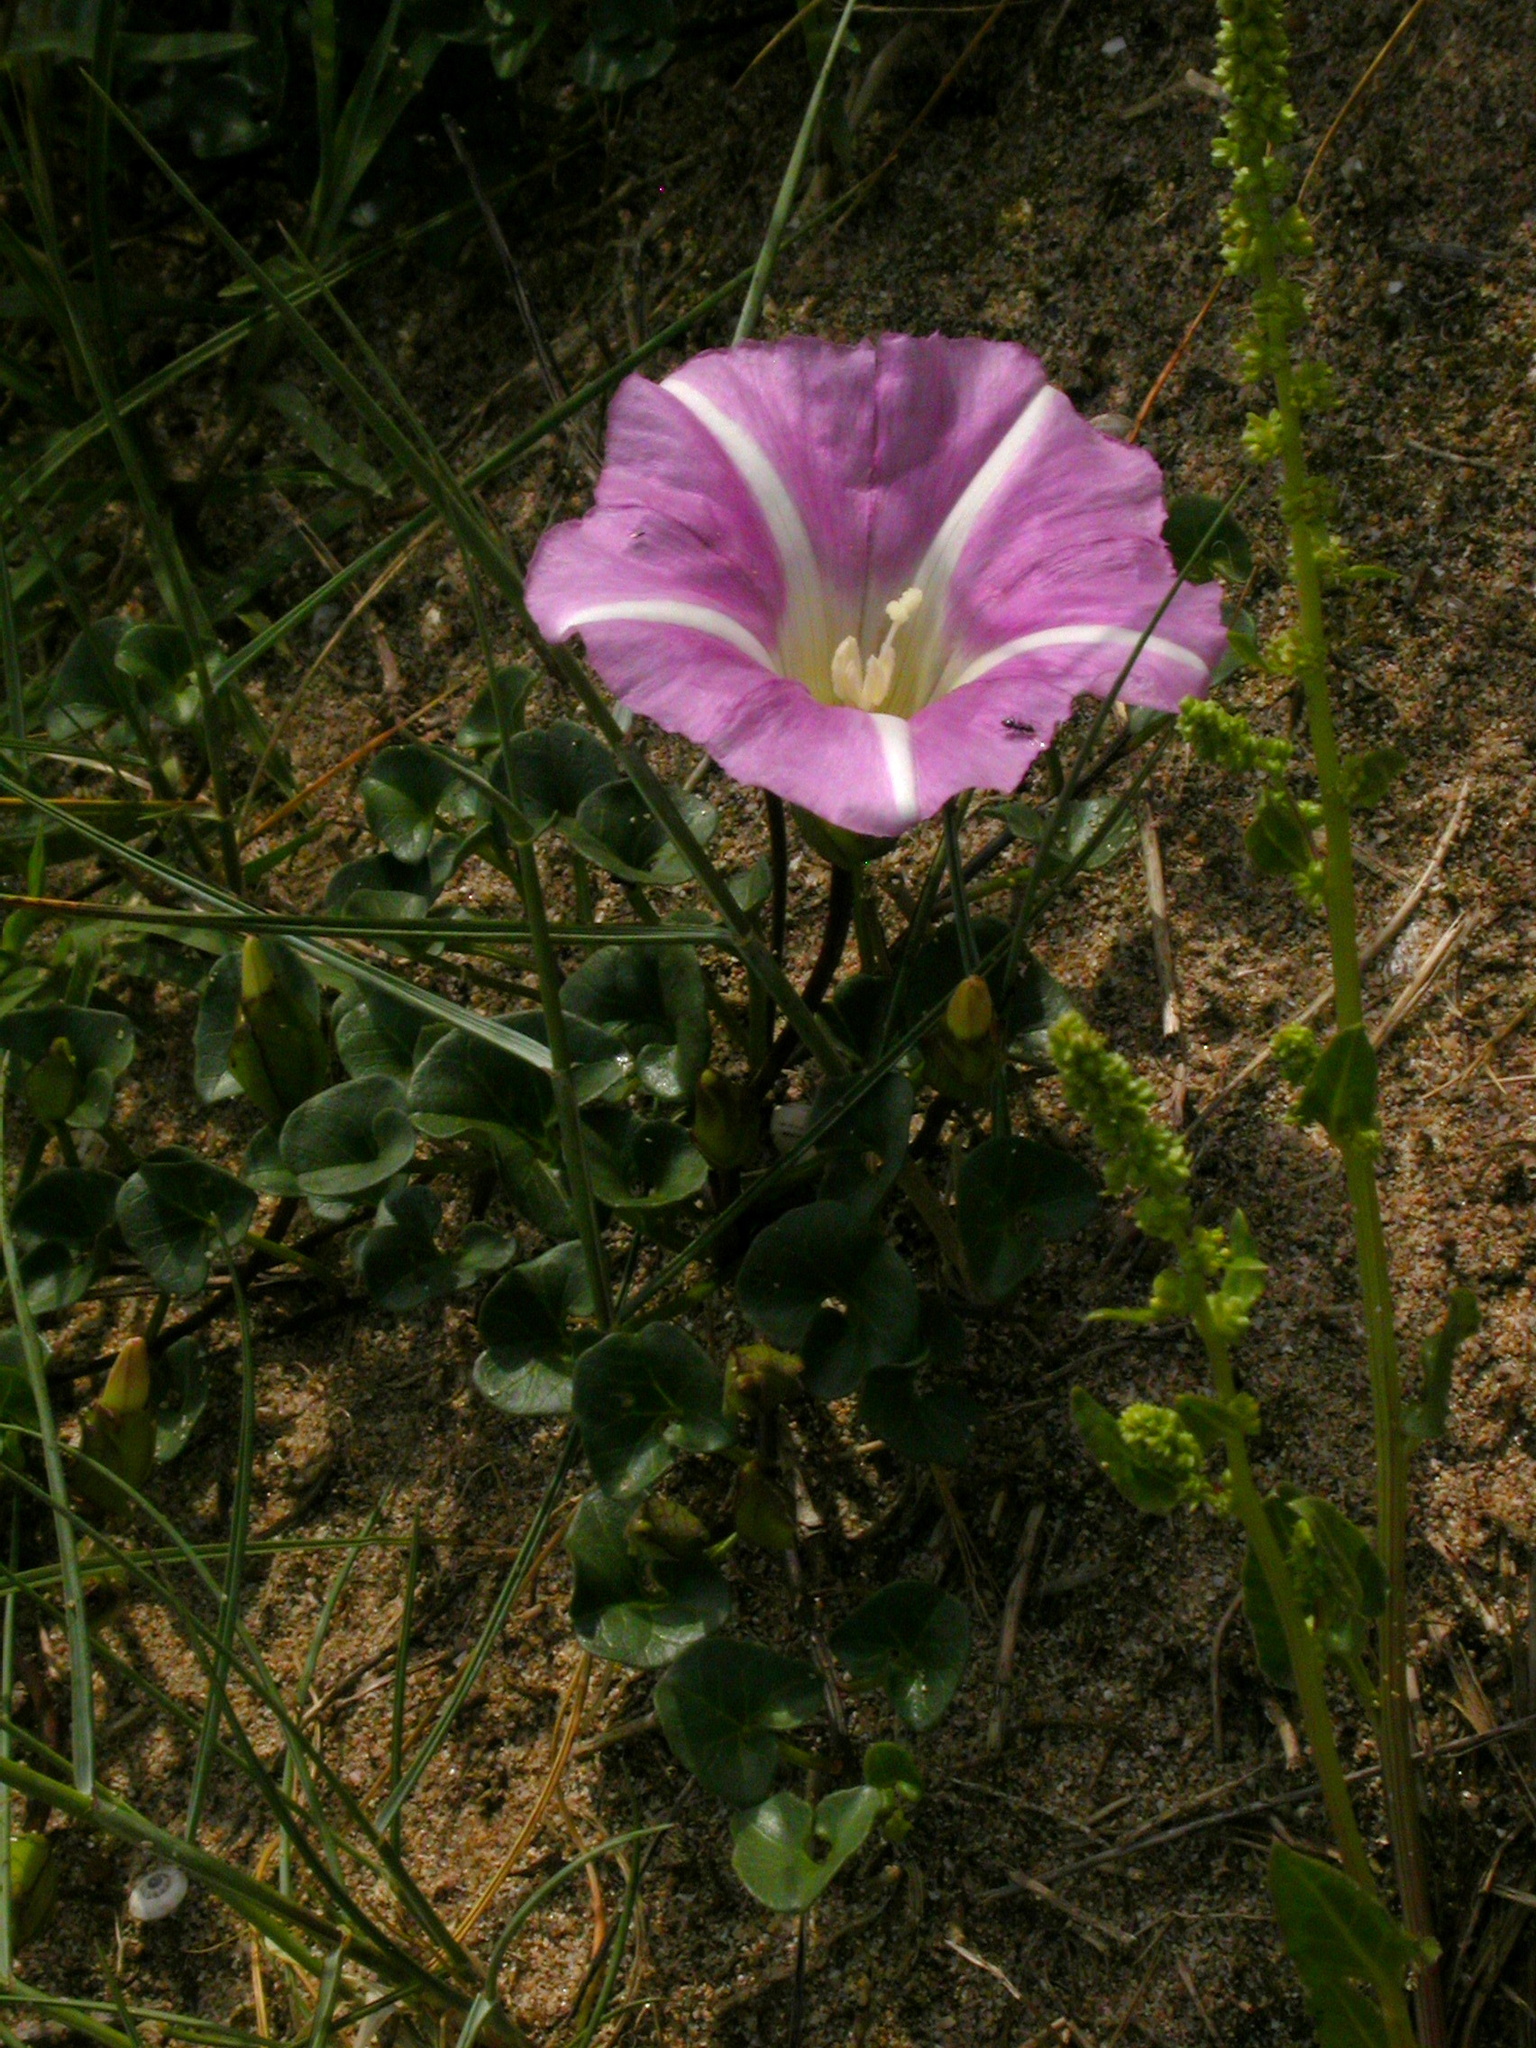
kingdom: Plantae
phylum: Tracheophyta
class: Magnoliopsida
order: Solanales
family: Convolvulaceae
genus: Calystegia
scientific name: Calystegia soldanella
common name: Sea bindweed
